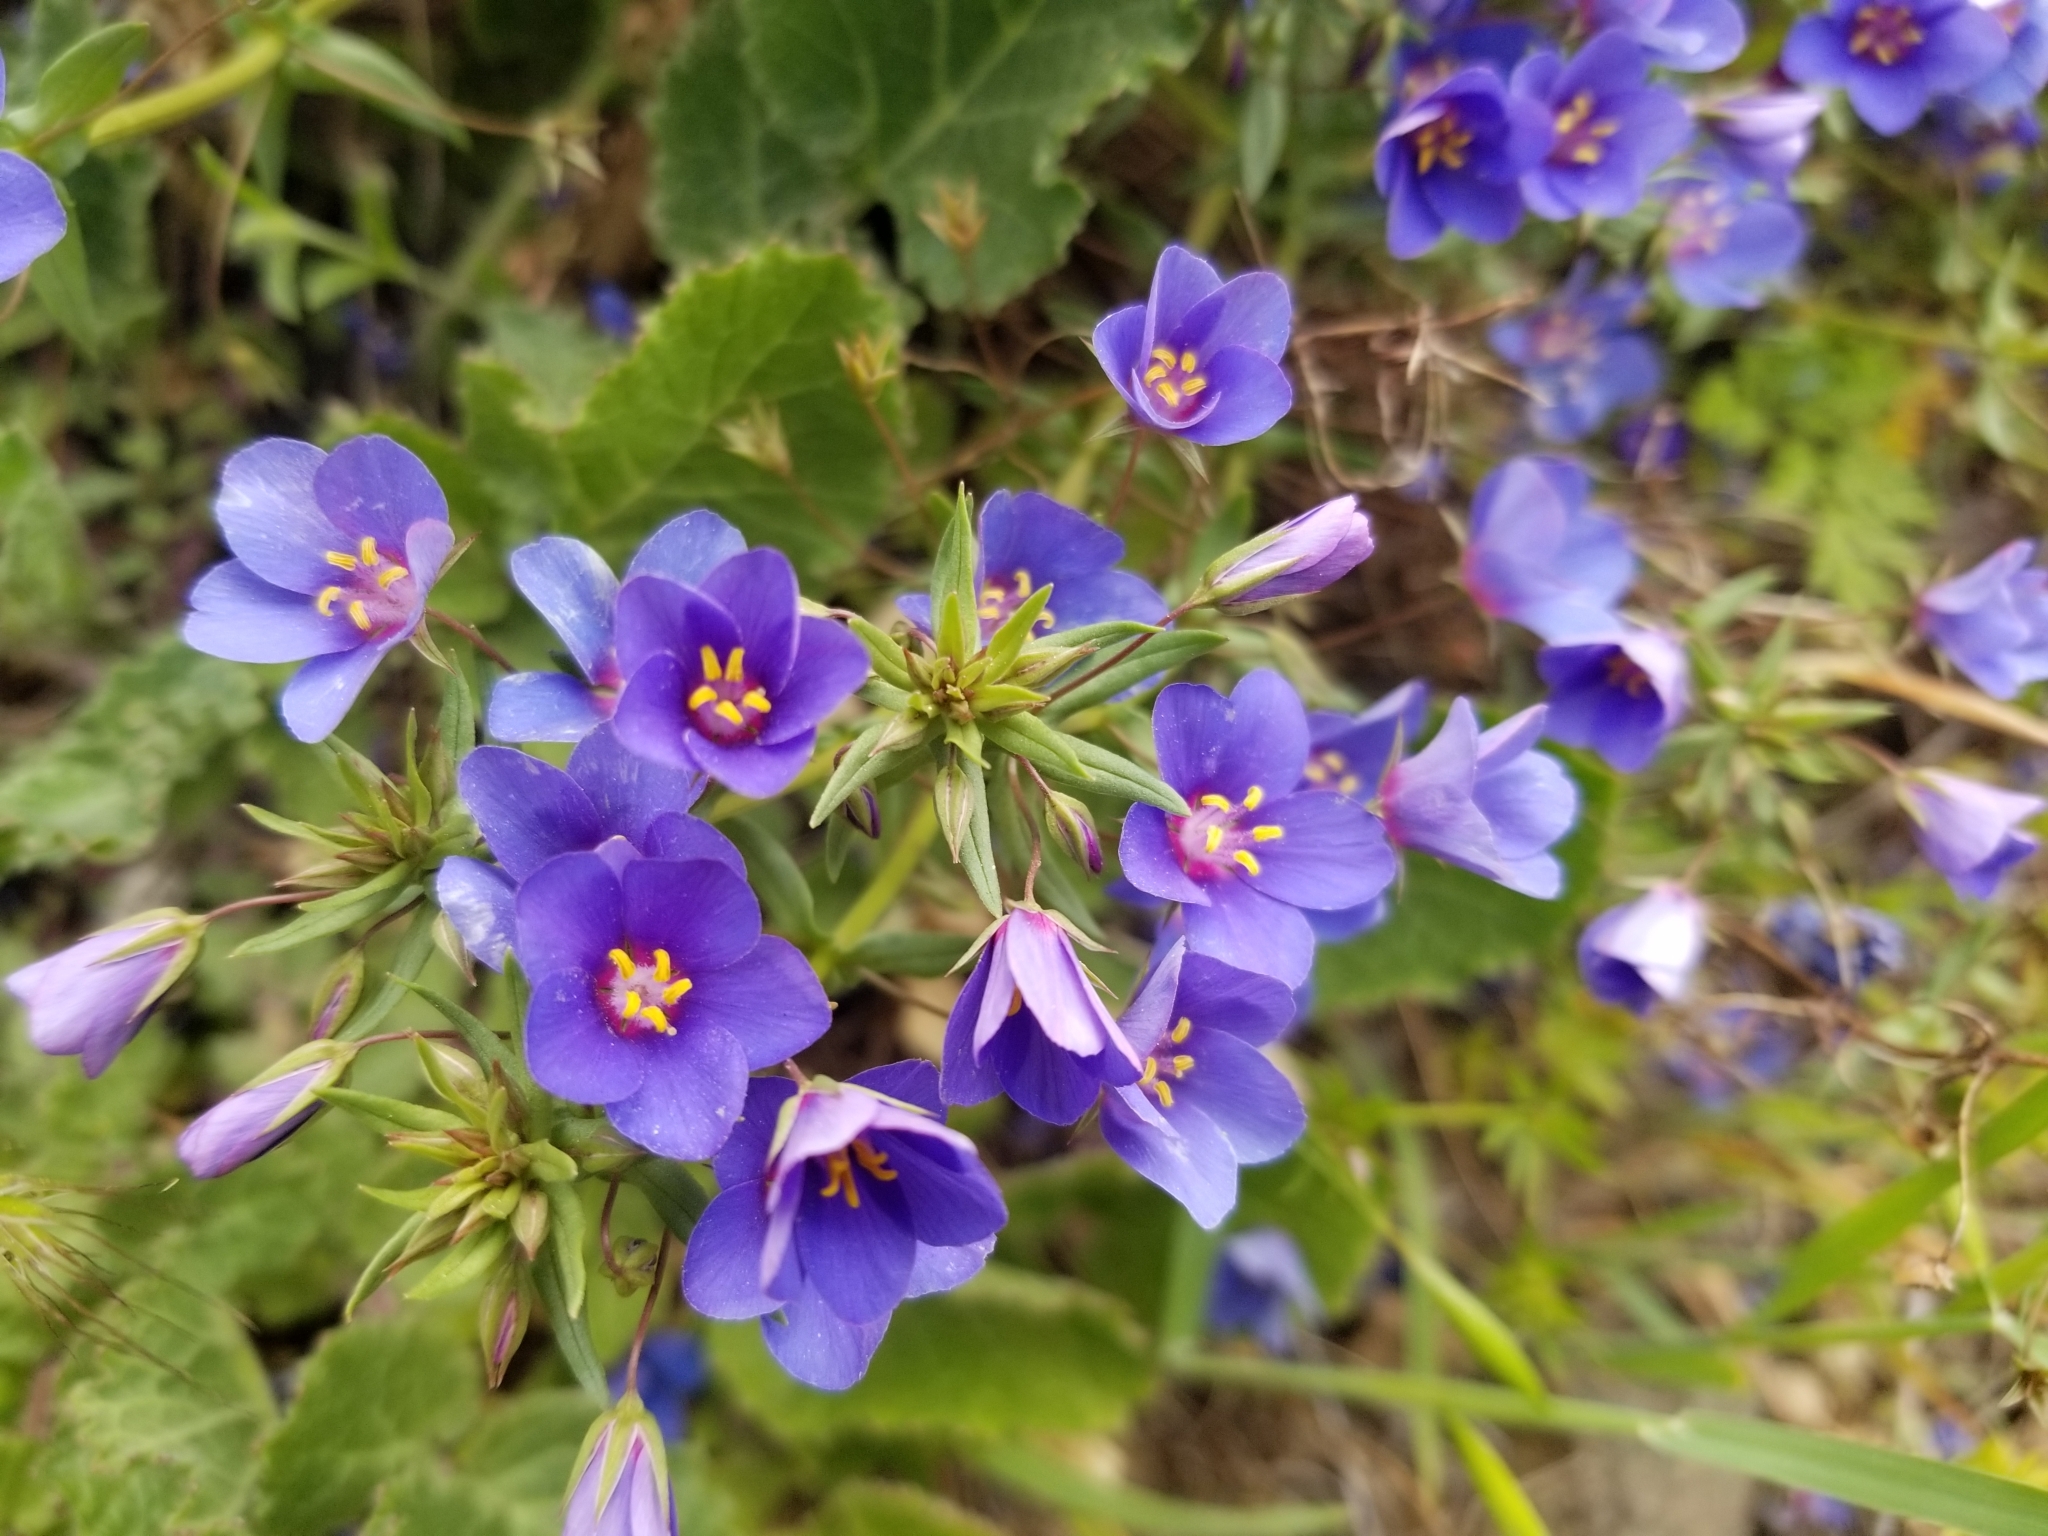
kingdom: Plantae
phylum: Tracheophyta
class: Magnoliopsida
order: Ericales
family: Primulaceae
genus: Lysimachia
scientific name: Lysimachia monelli
